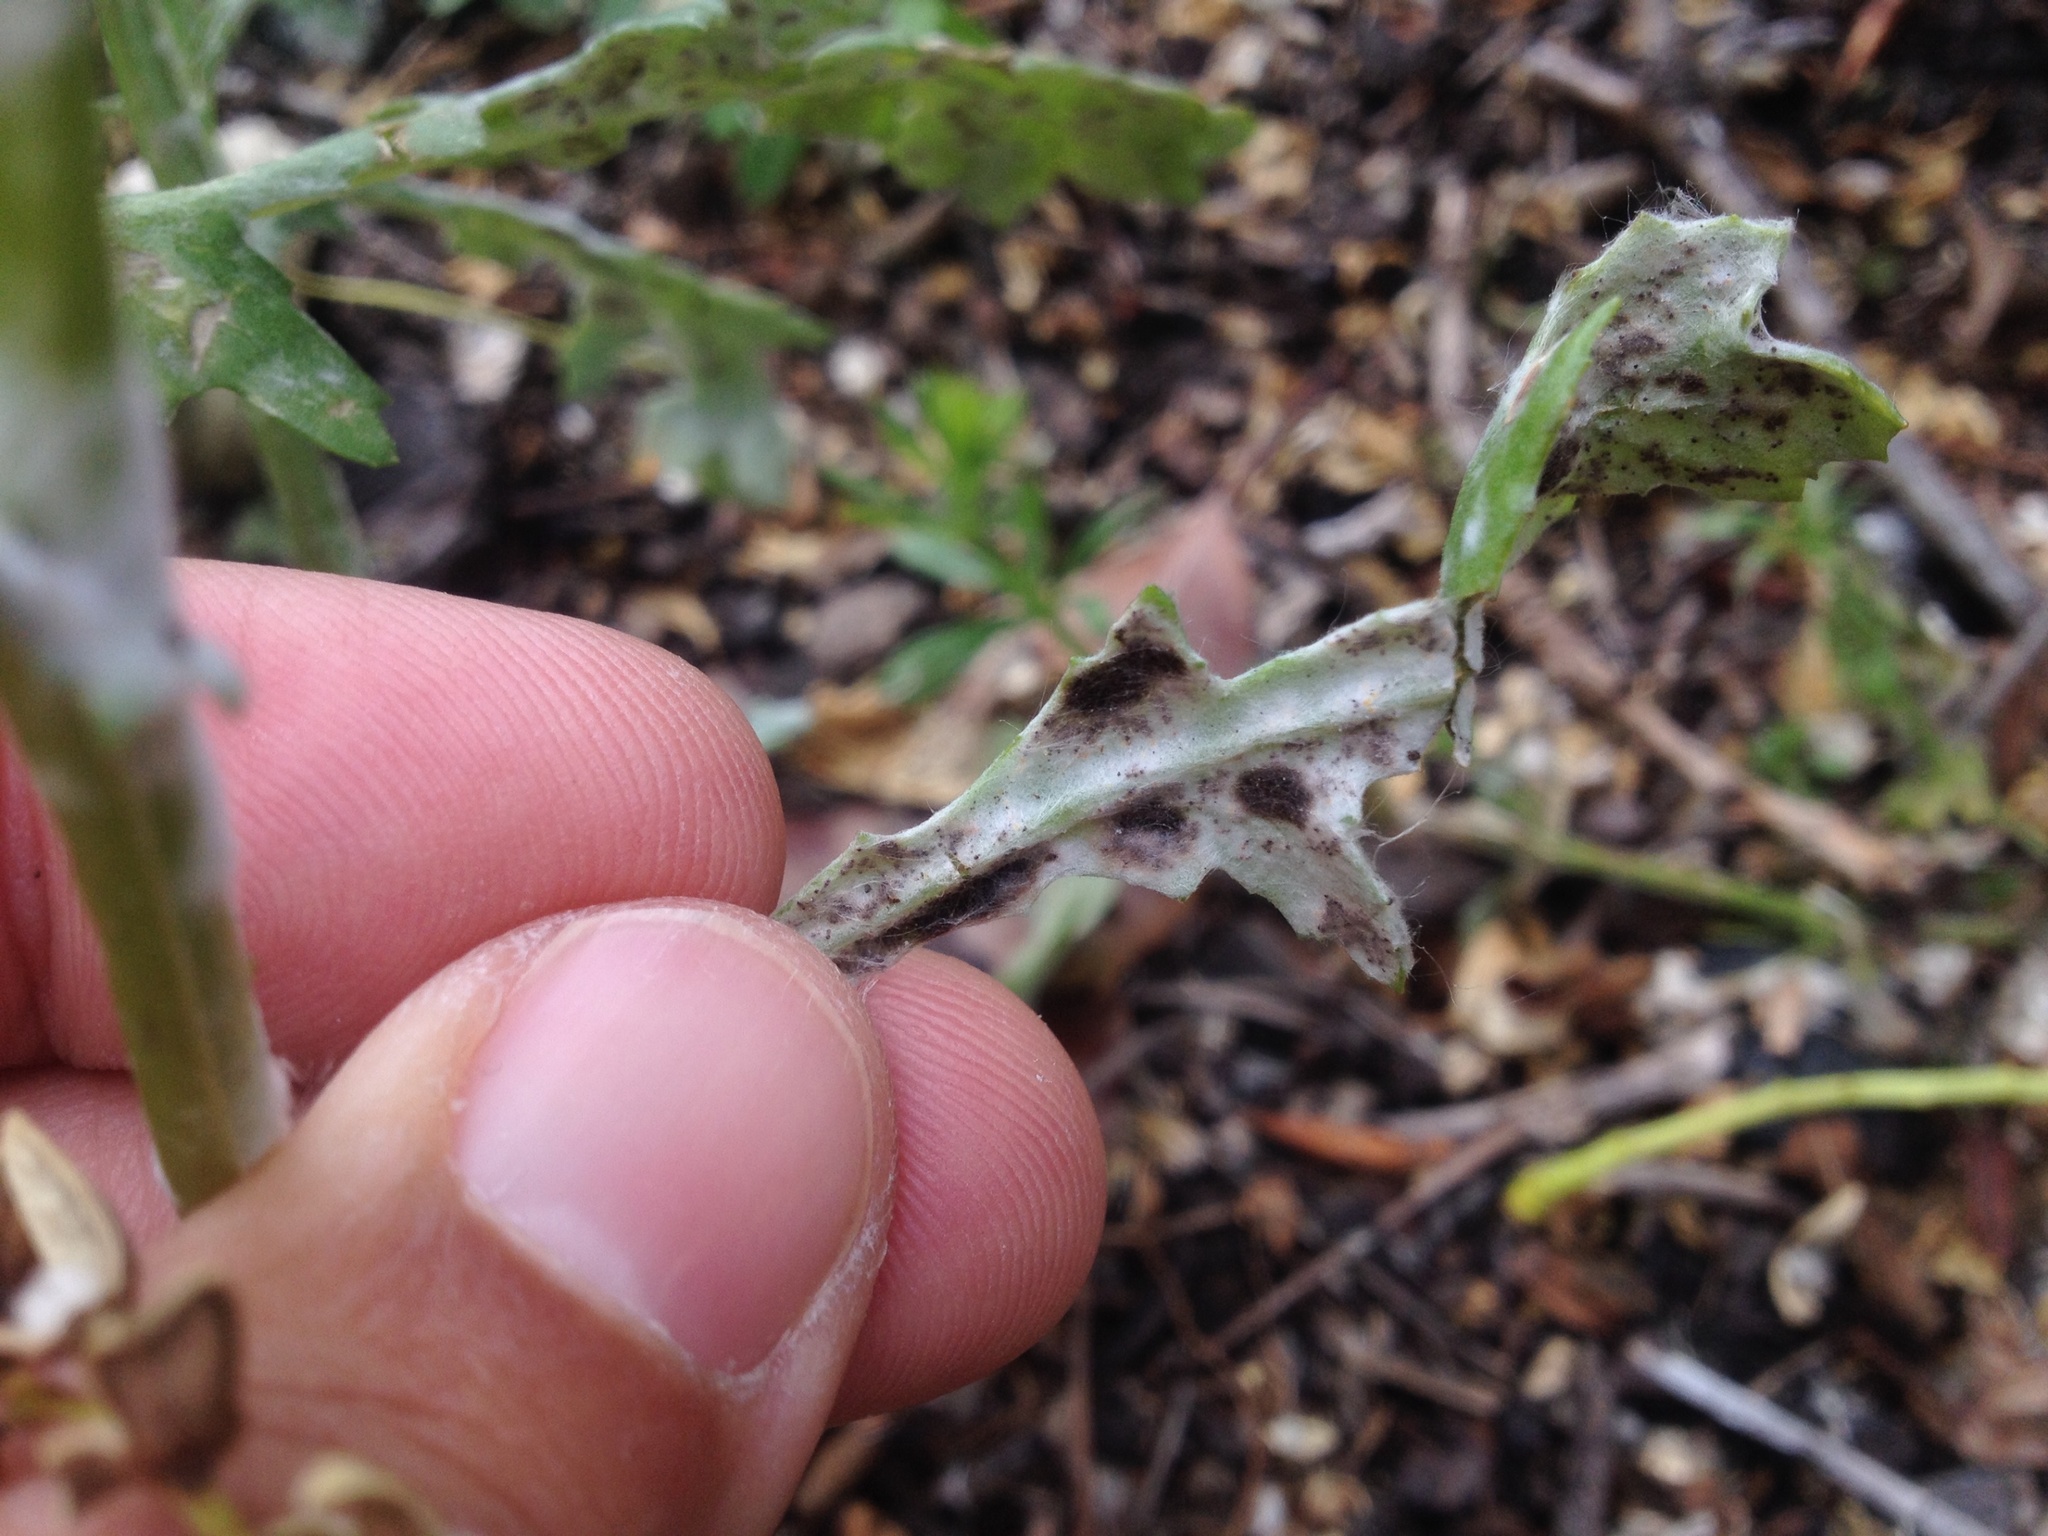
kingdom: Fungi
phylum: Ascomycota
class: Leotiomycetes
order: Helotiales
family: Erysiphaceae
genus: Neoerysiphe
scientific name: Neoerysiphe kerribeeensis
